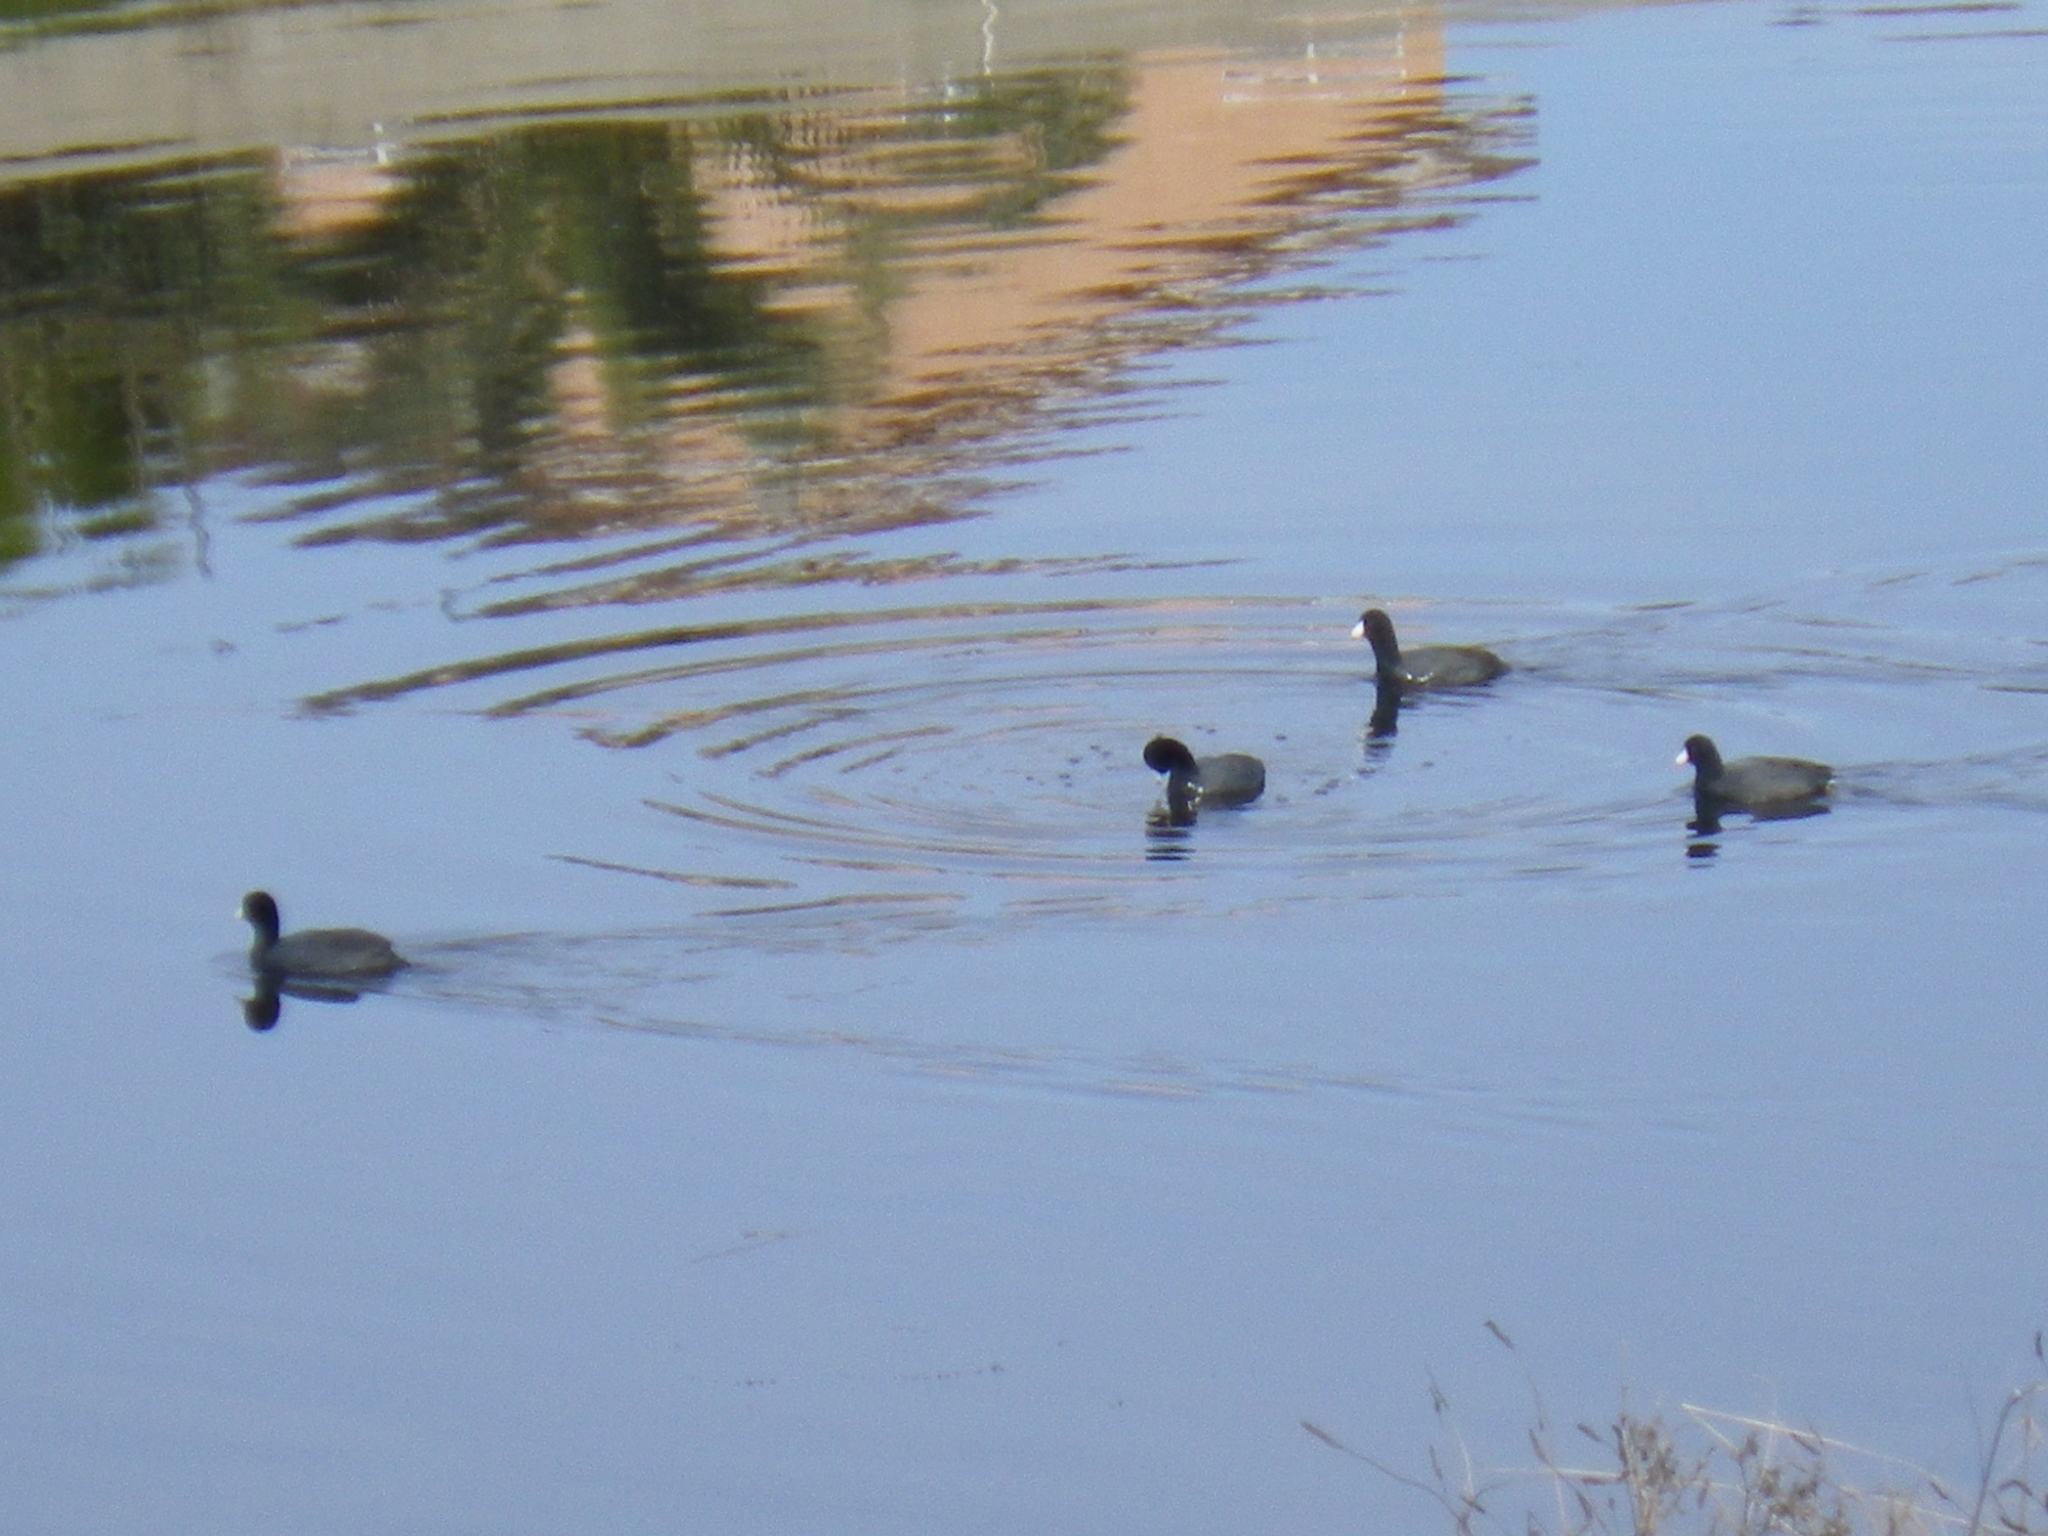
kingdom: Animalia
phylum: Chordata
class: Aves
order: Gruiformes
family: Rallidae
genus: Fulica
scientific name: Fulica americana
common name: American coot
